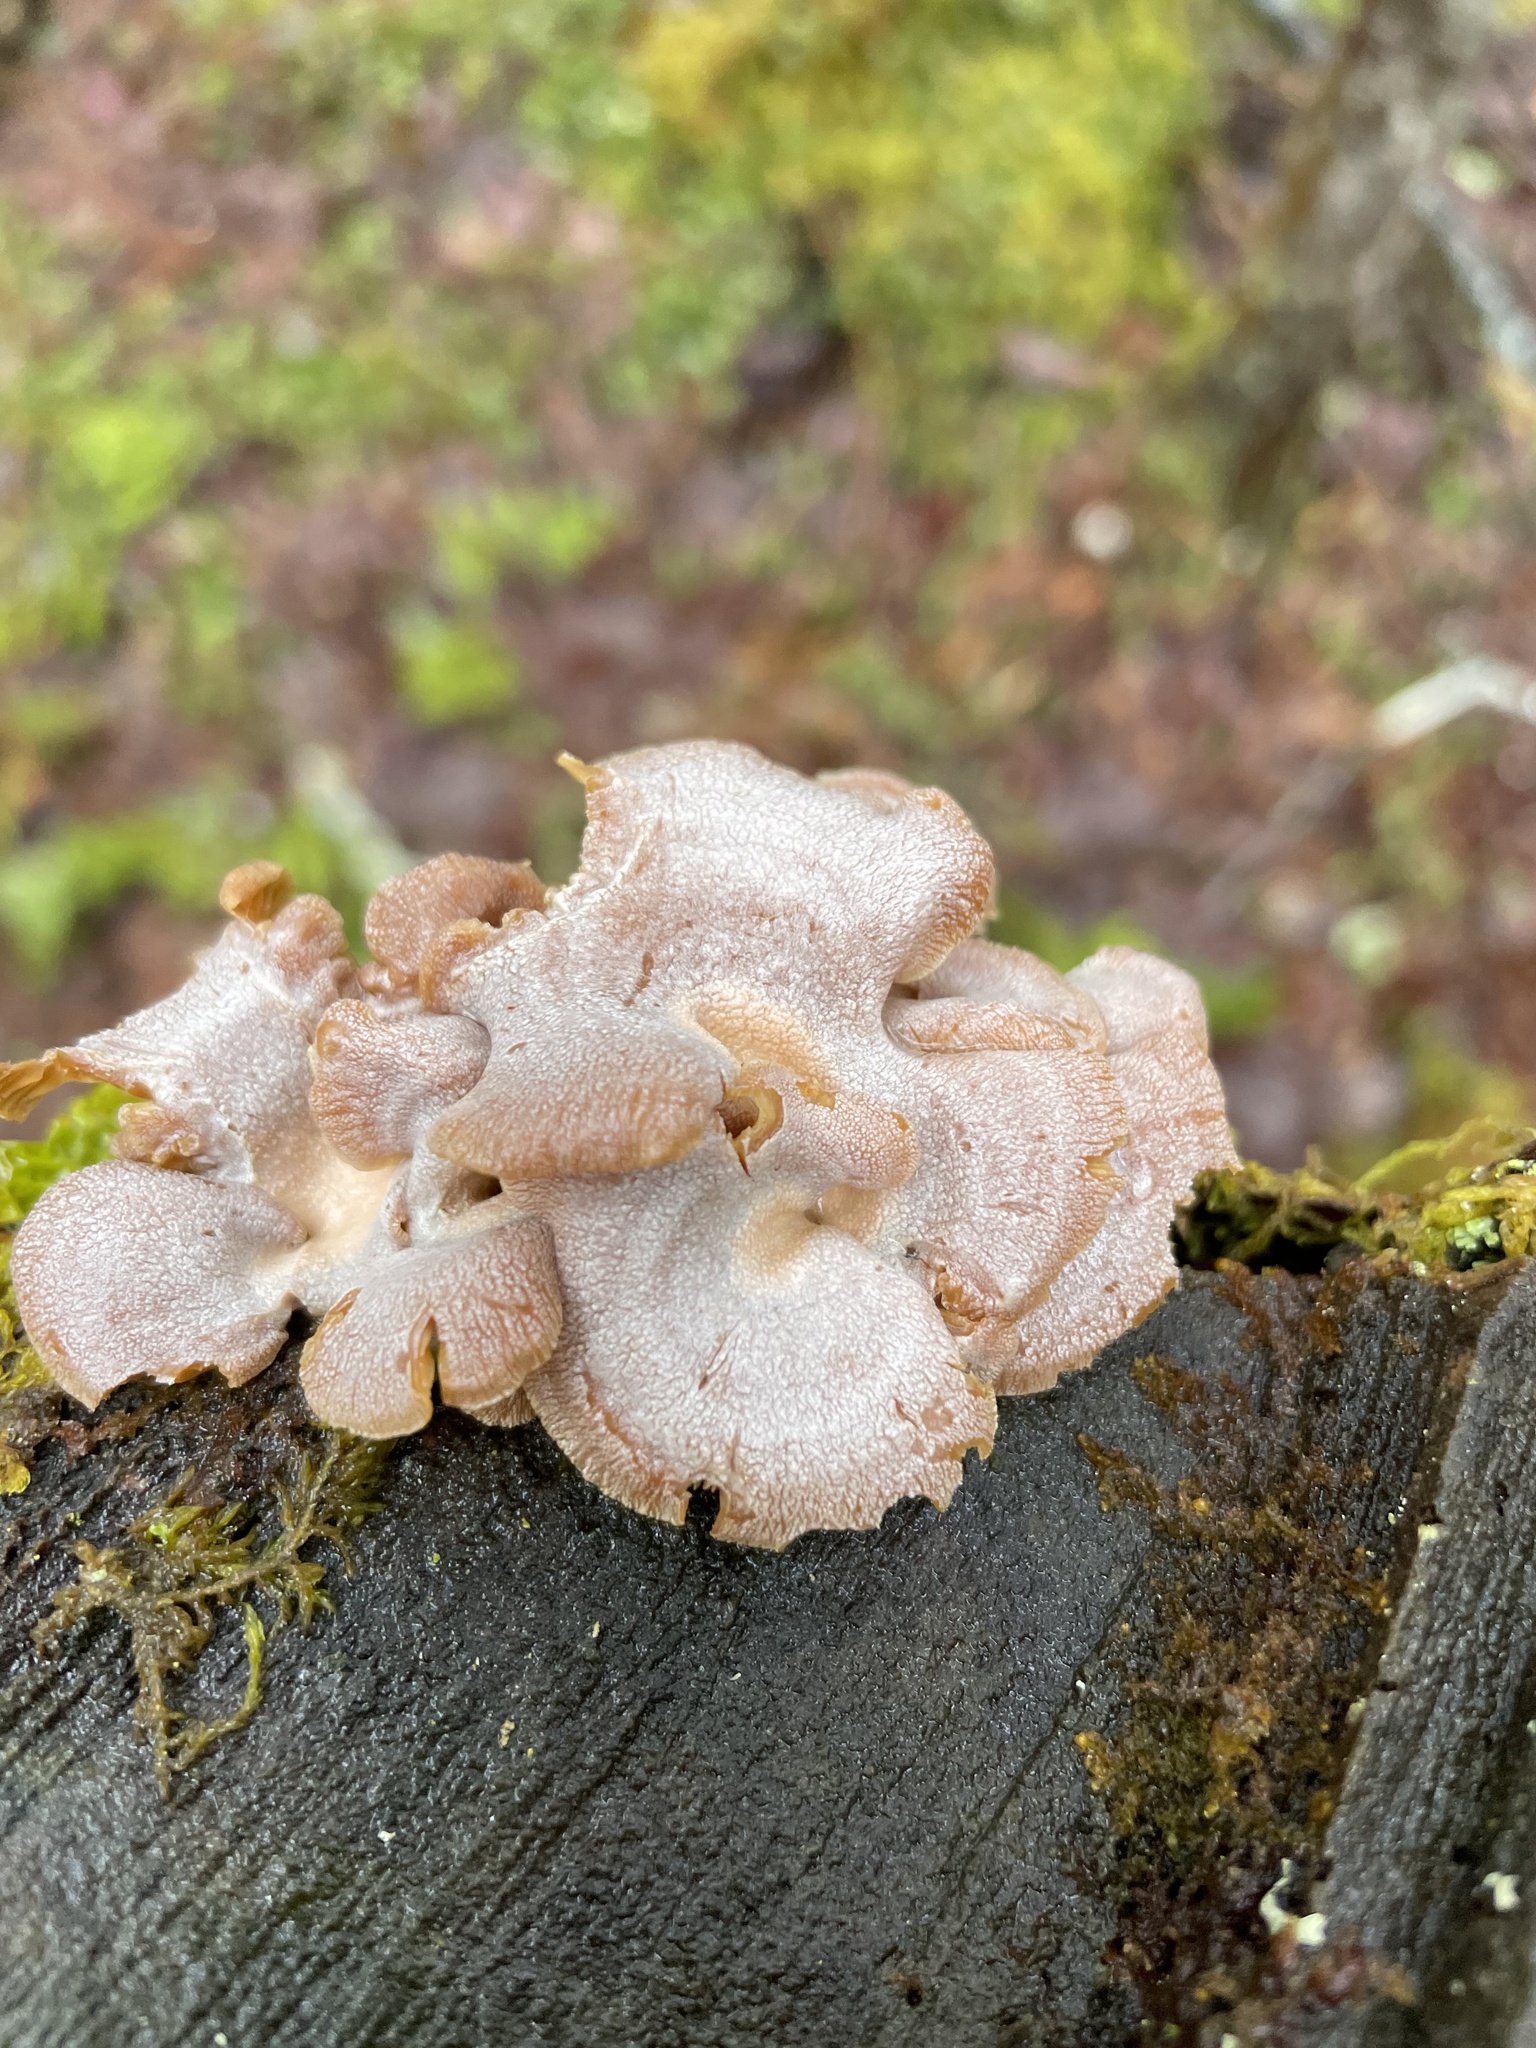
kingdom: Fungi
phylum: Basidiomycota
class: Agaricomycetes
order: Agaricales
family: Mycenaceae
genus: Panellus
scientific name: Panellus stipticus
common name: Bitter oysterling
